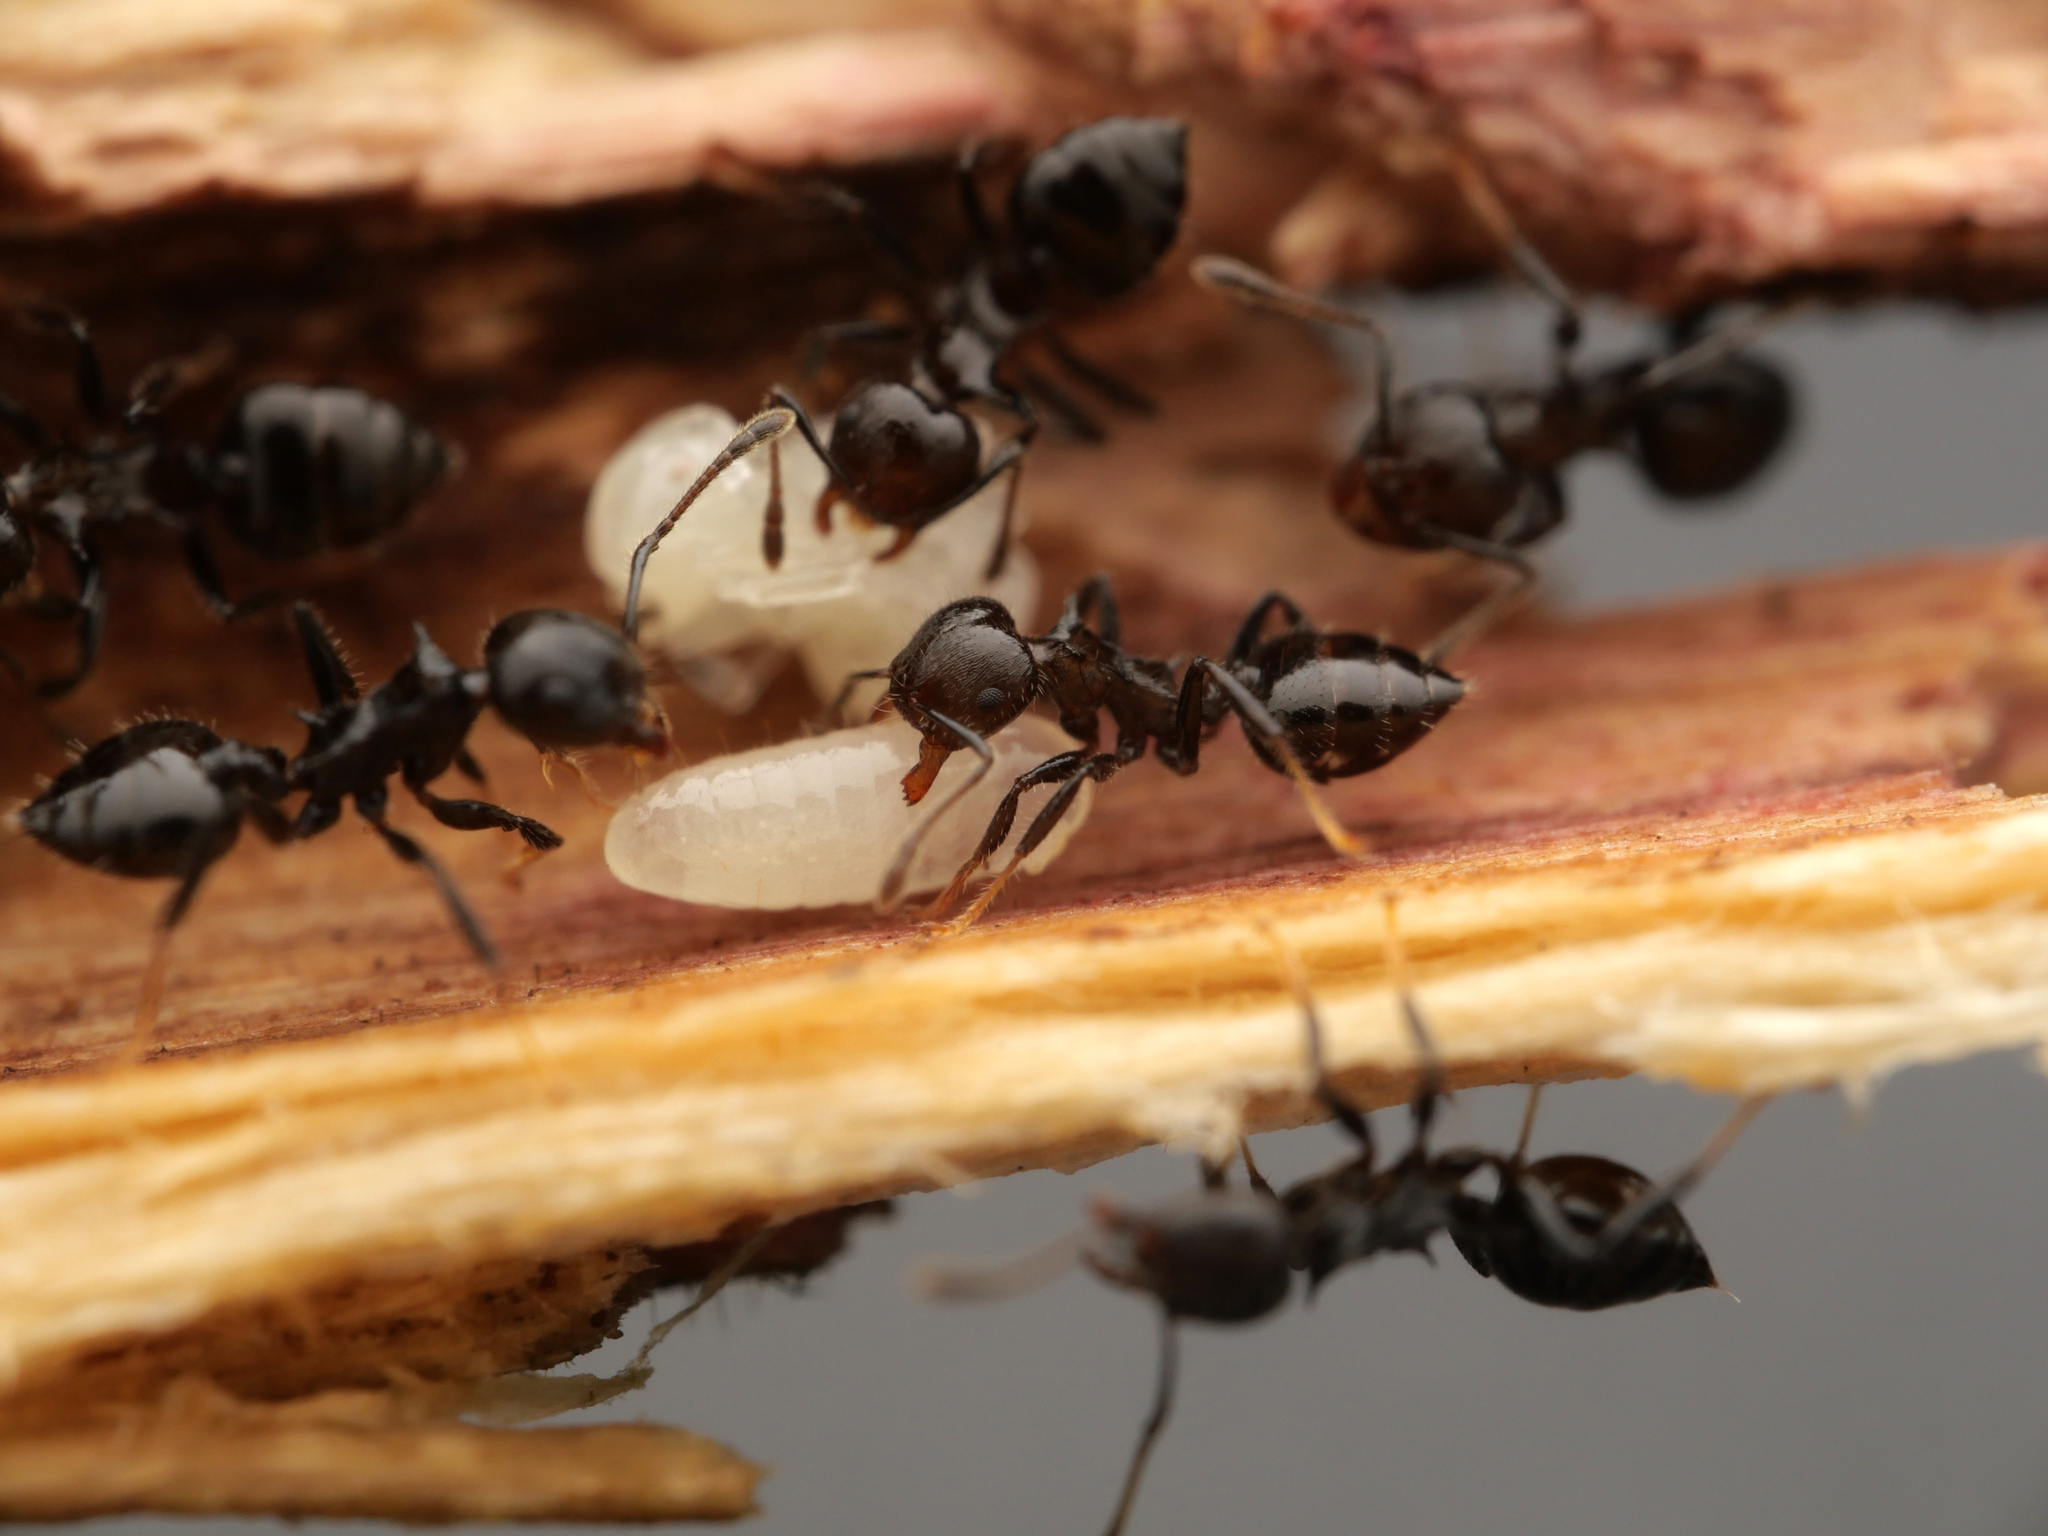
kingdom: Animalia
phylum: Arthropoda
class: Insecta
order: Hymenoptera
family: Formicidae
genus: Crematogaster
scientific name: Crematogaster flavitarsis
